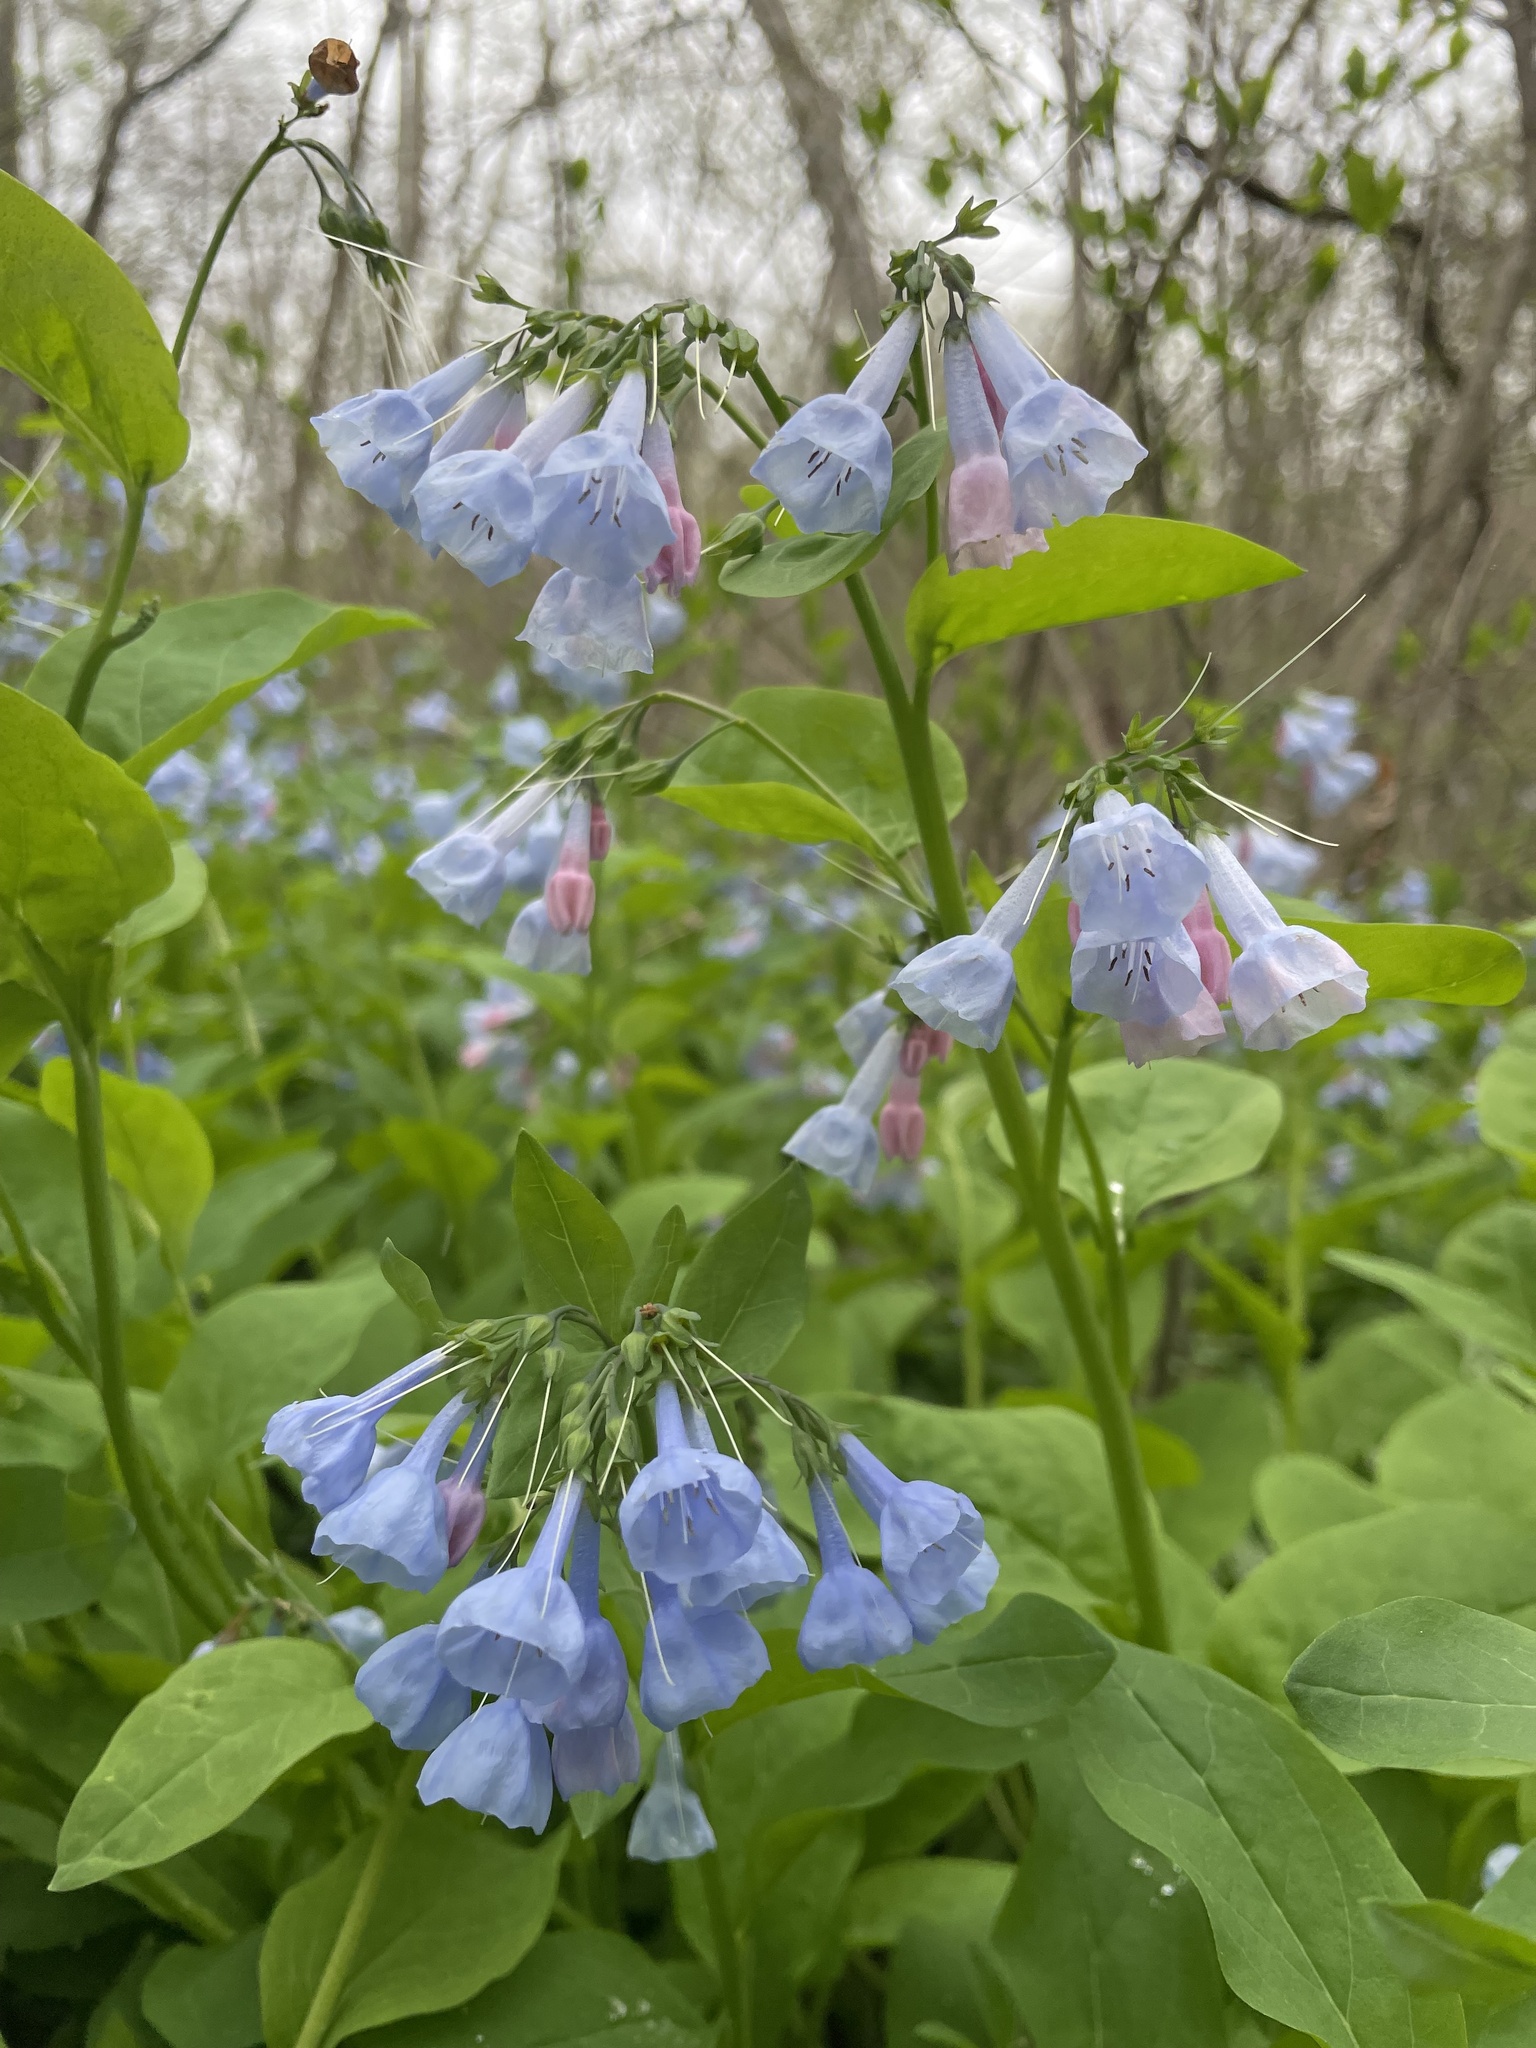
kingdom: Plantae
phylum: Tracheophyta
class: Magnoliopsida
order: Boraginales
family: Boraginaceae
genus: Mertensia
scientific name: Mertensia virginica
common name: Virginia bluebells
